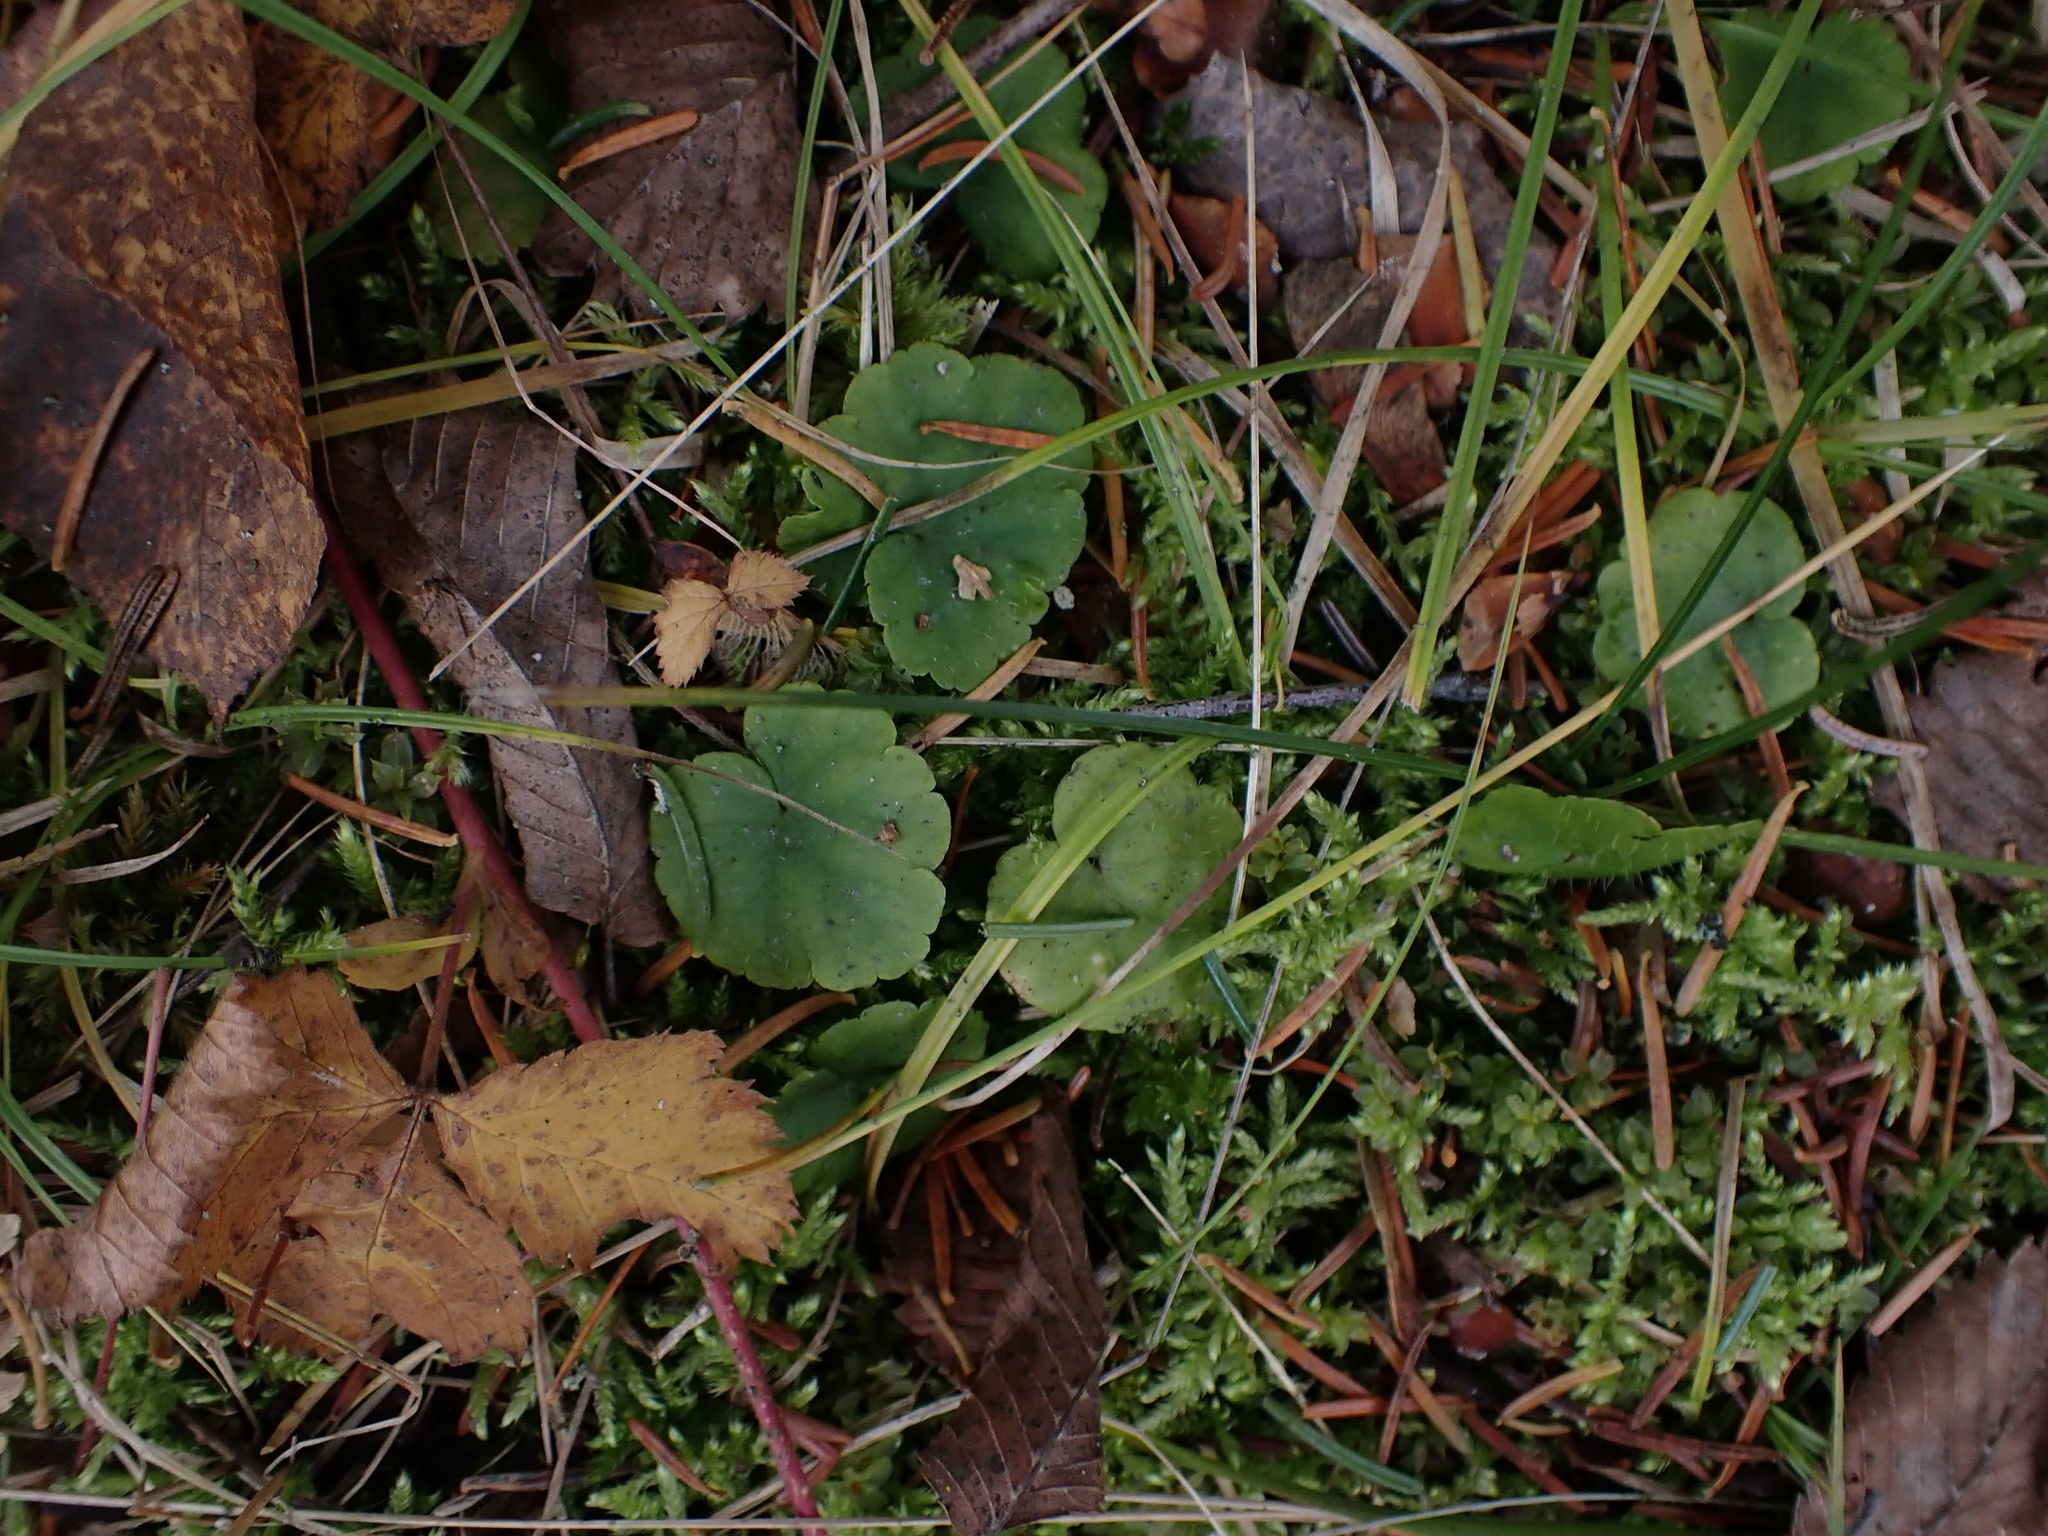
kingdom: Plantae
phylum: Tracheophyta
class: Magnoliopsida
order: Saxifragales
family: Saxifragaceae
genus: Mitella
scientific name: Mitella nuda
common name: Bare-stemmed bishop's-cap
